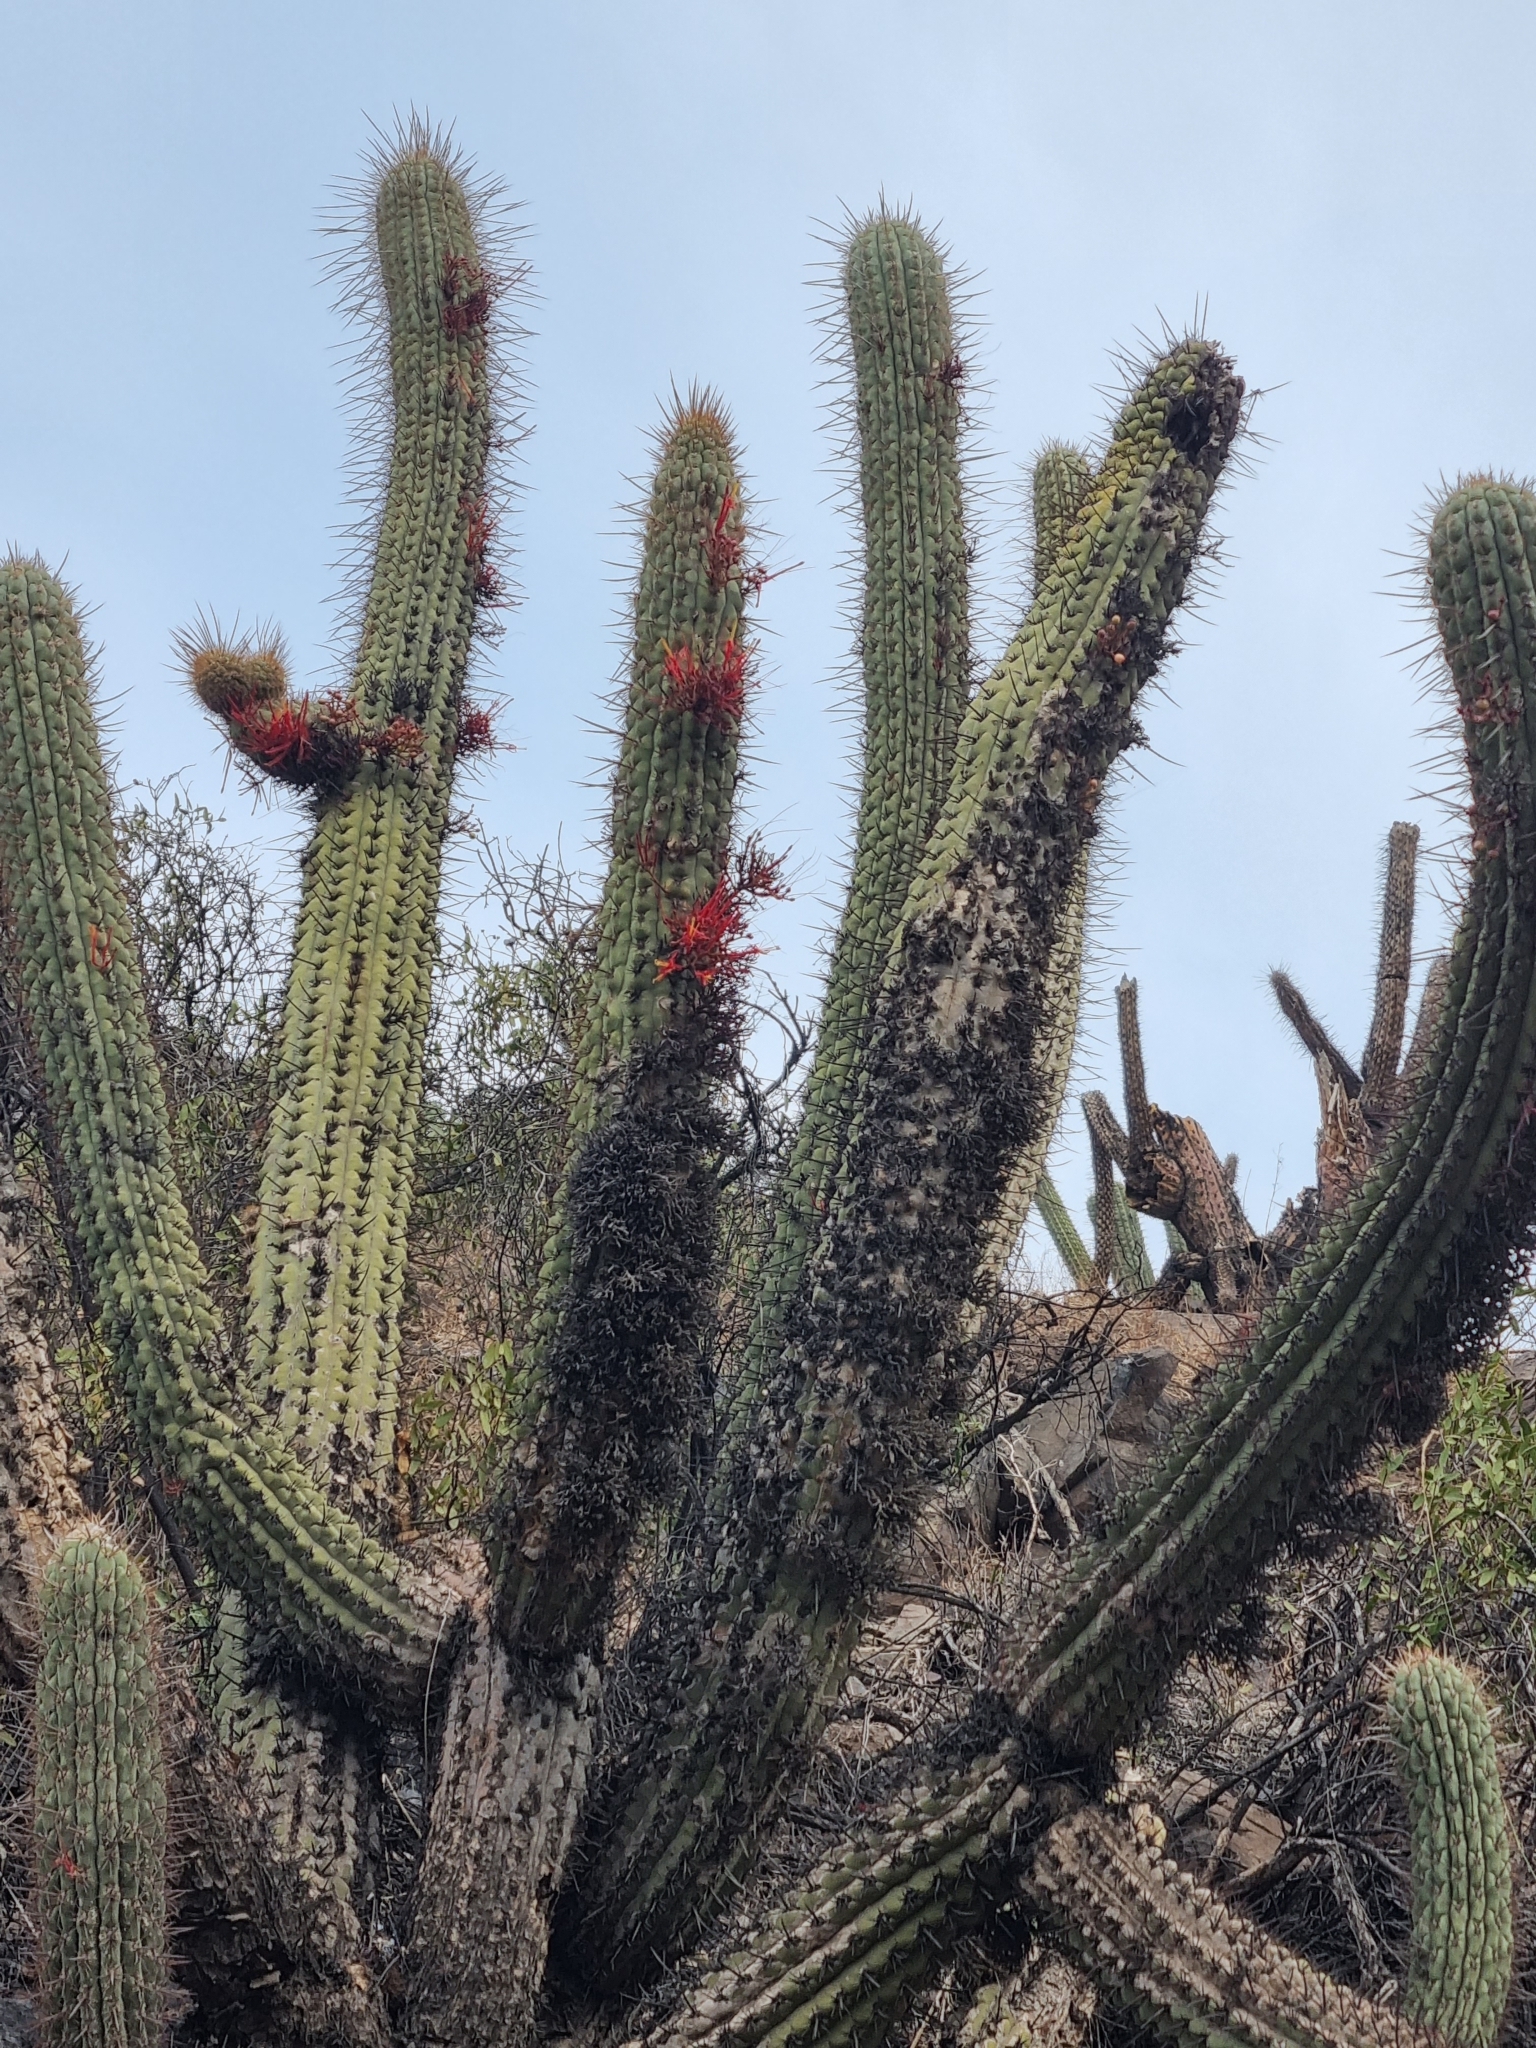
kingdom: Plantae
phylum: Tracheophyta
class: Magnoliopsida
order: Santalales
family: Loranthaceae
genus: Tristerix
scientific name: Tristerix aphyllus
